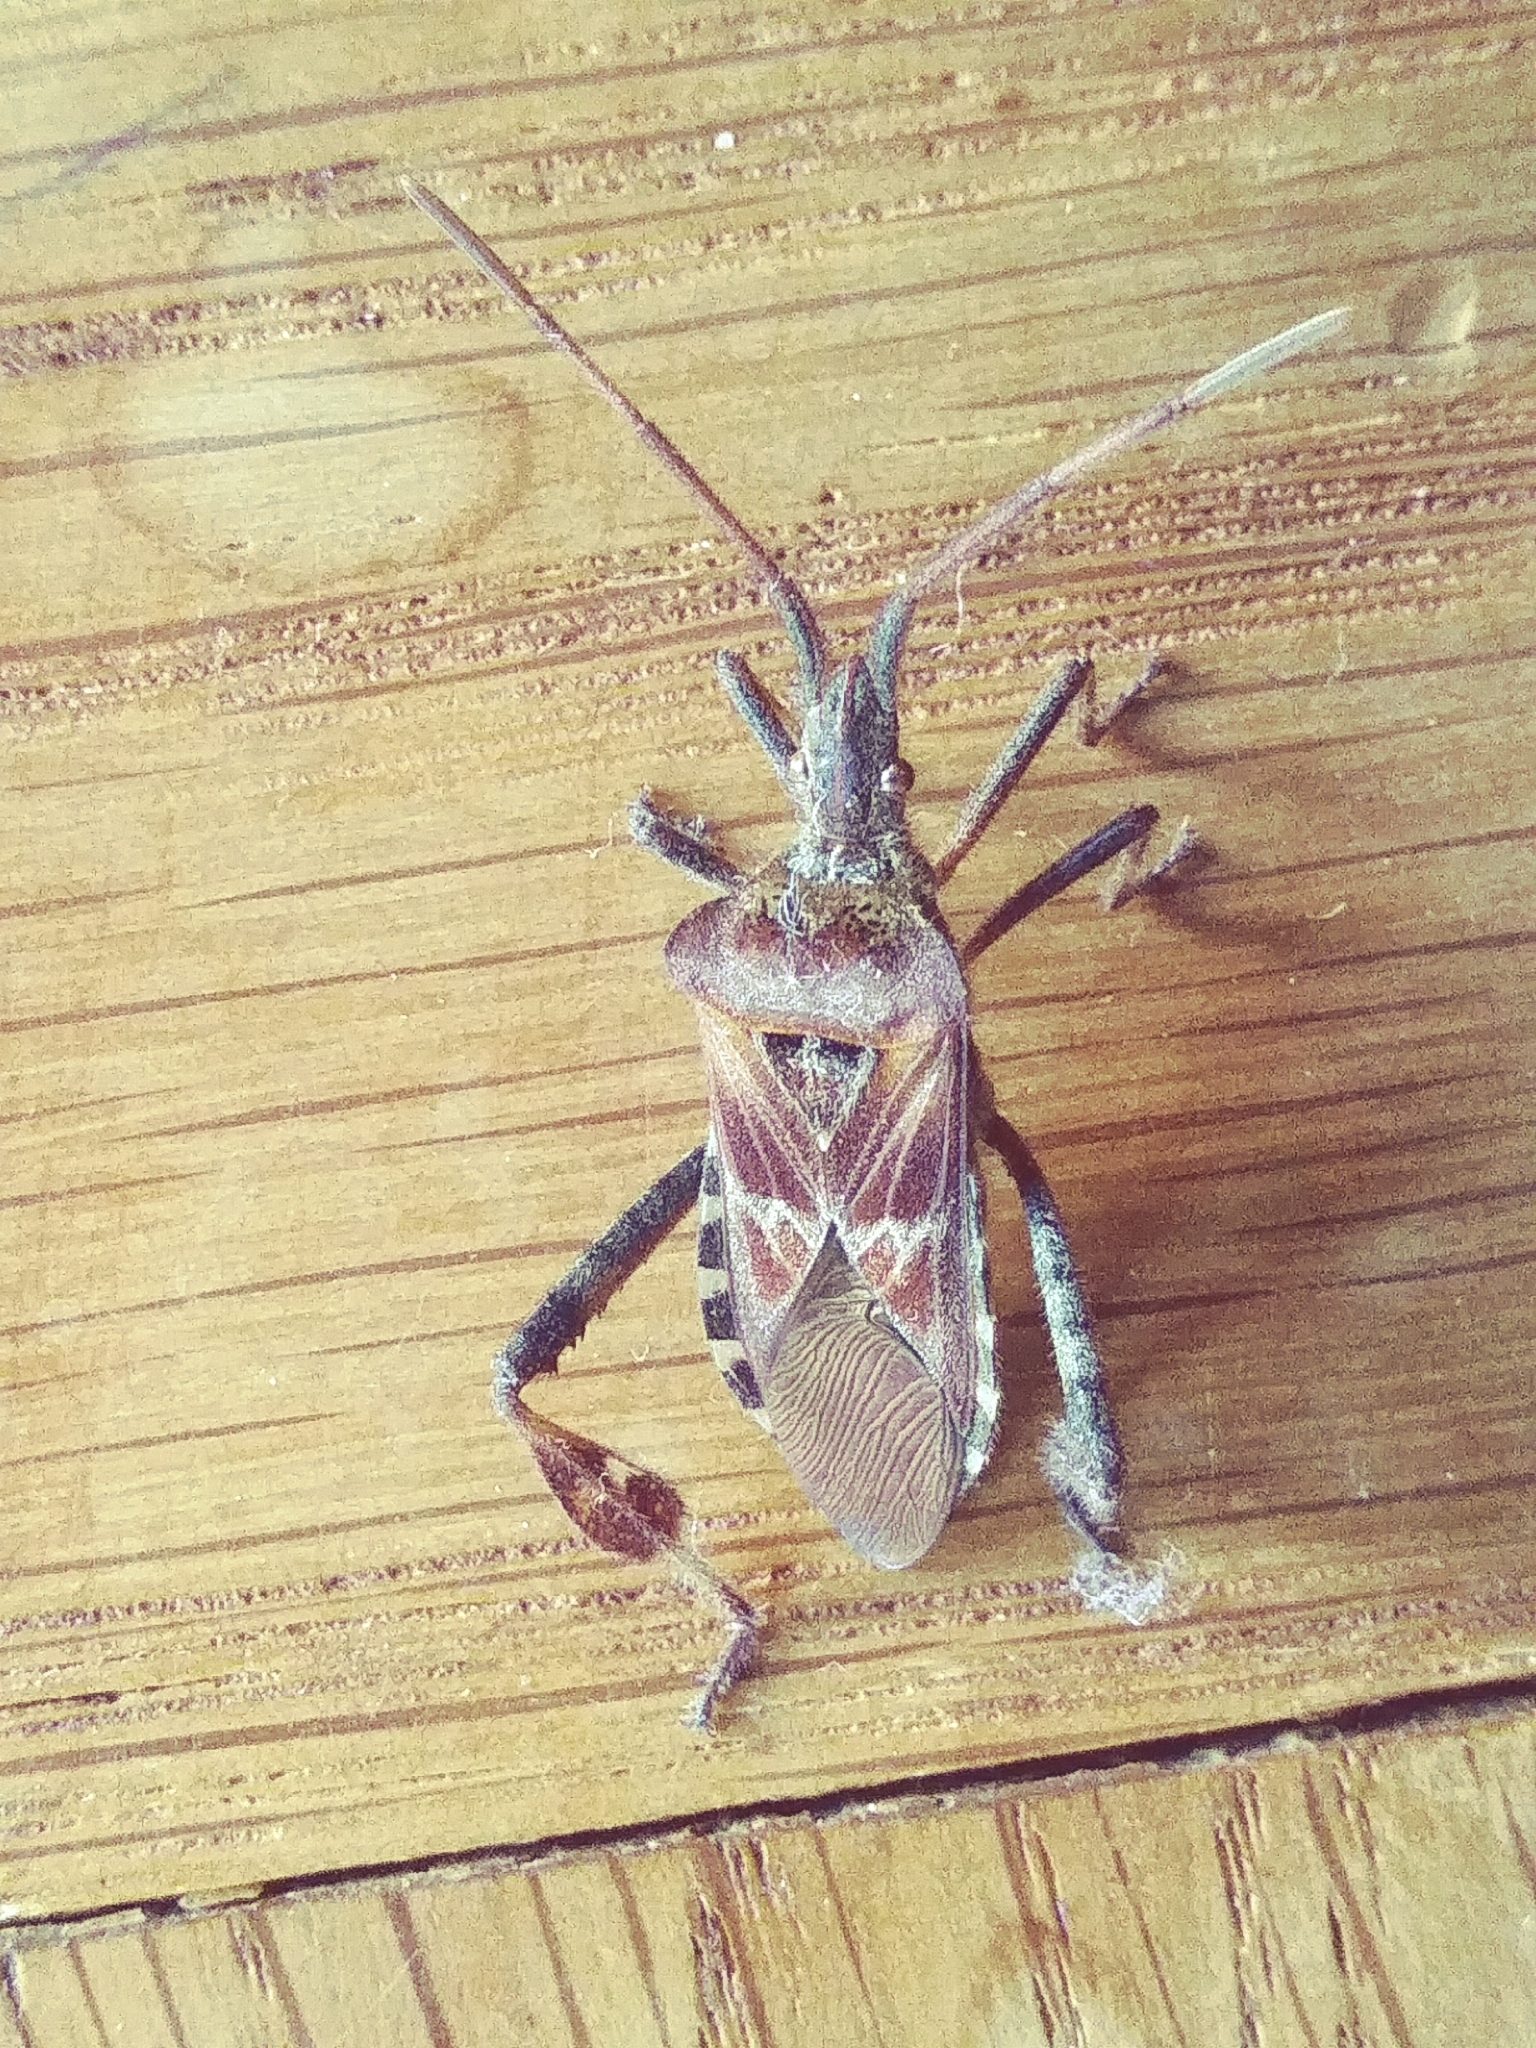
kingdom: Animalia
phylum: Arthropoda
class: Insecta
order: Hemiptera
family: Coreidae
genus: Leptoglossus
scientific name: Leptoglossus occidentalis
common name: Western conifer-seed bug
